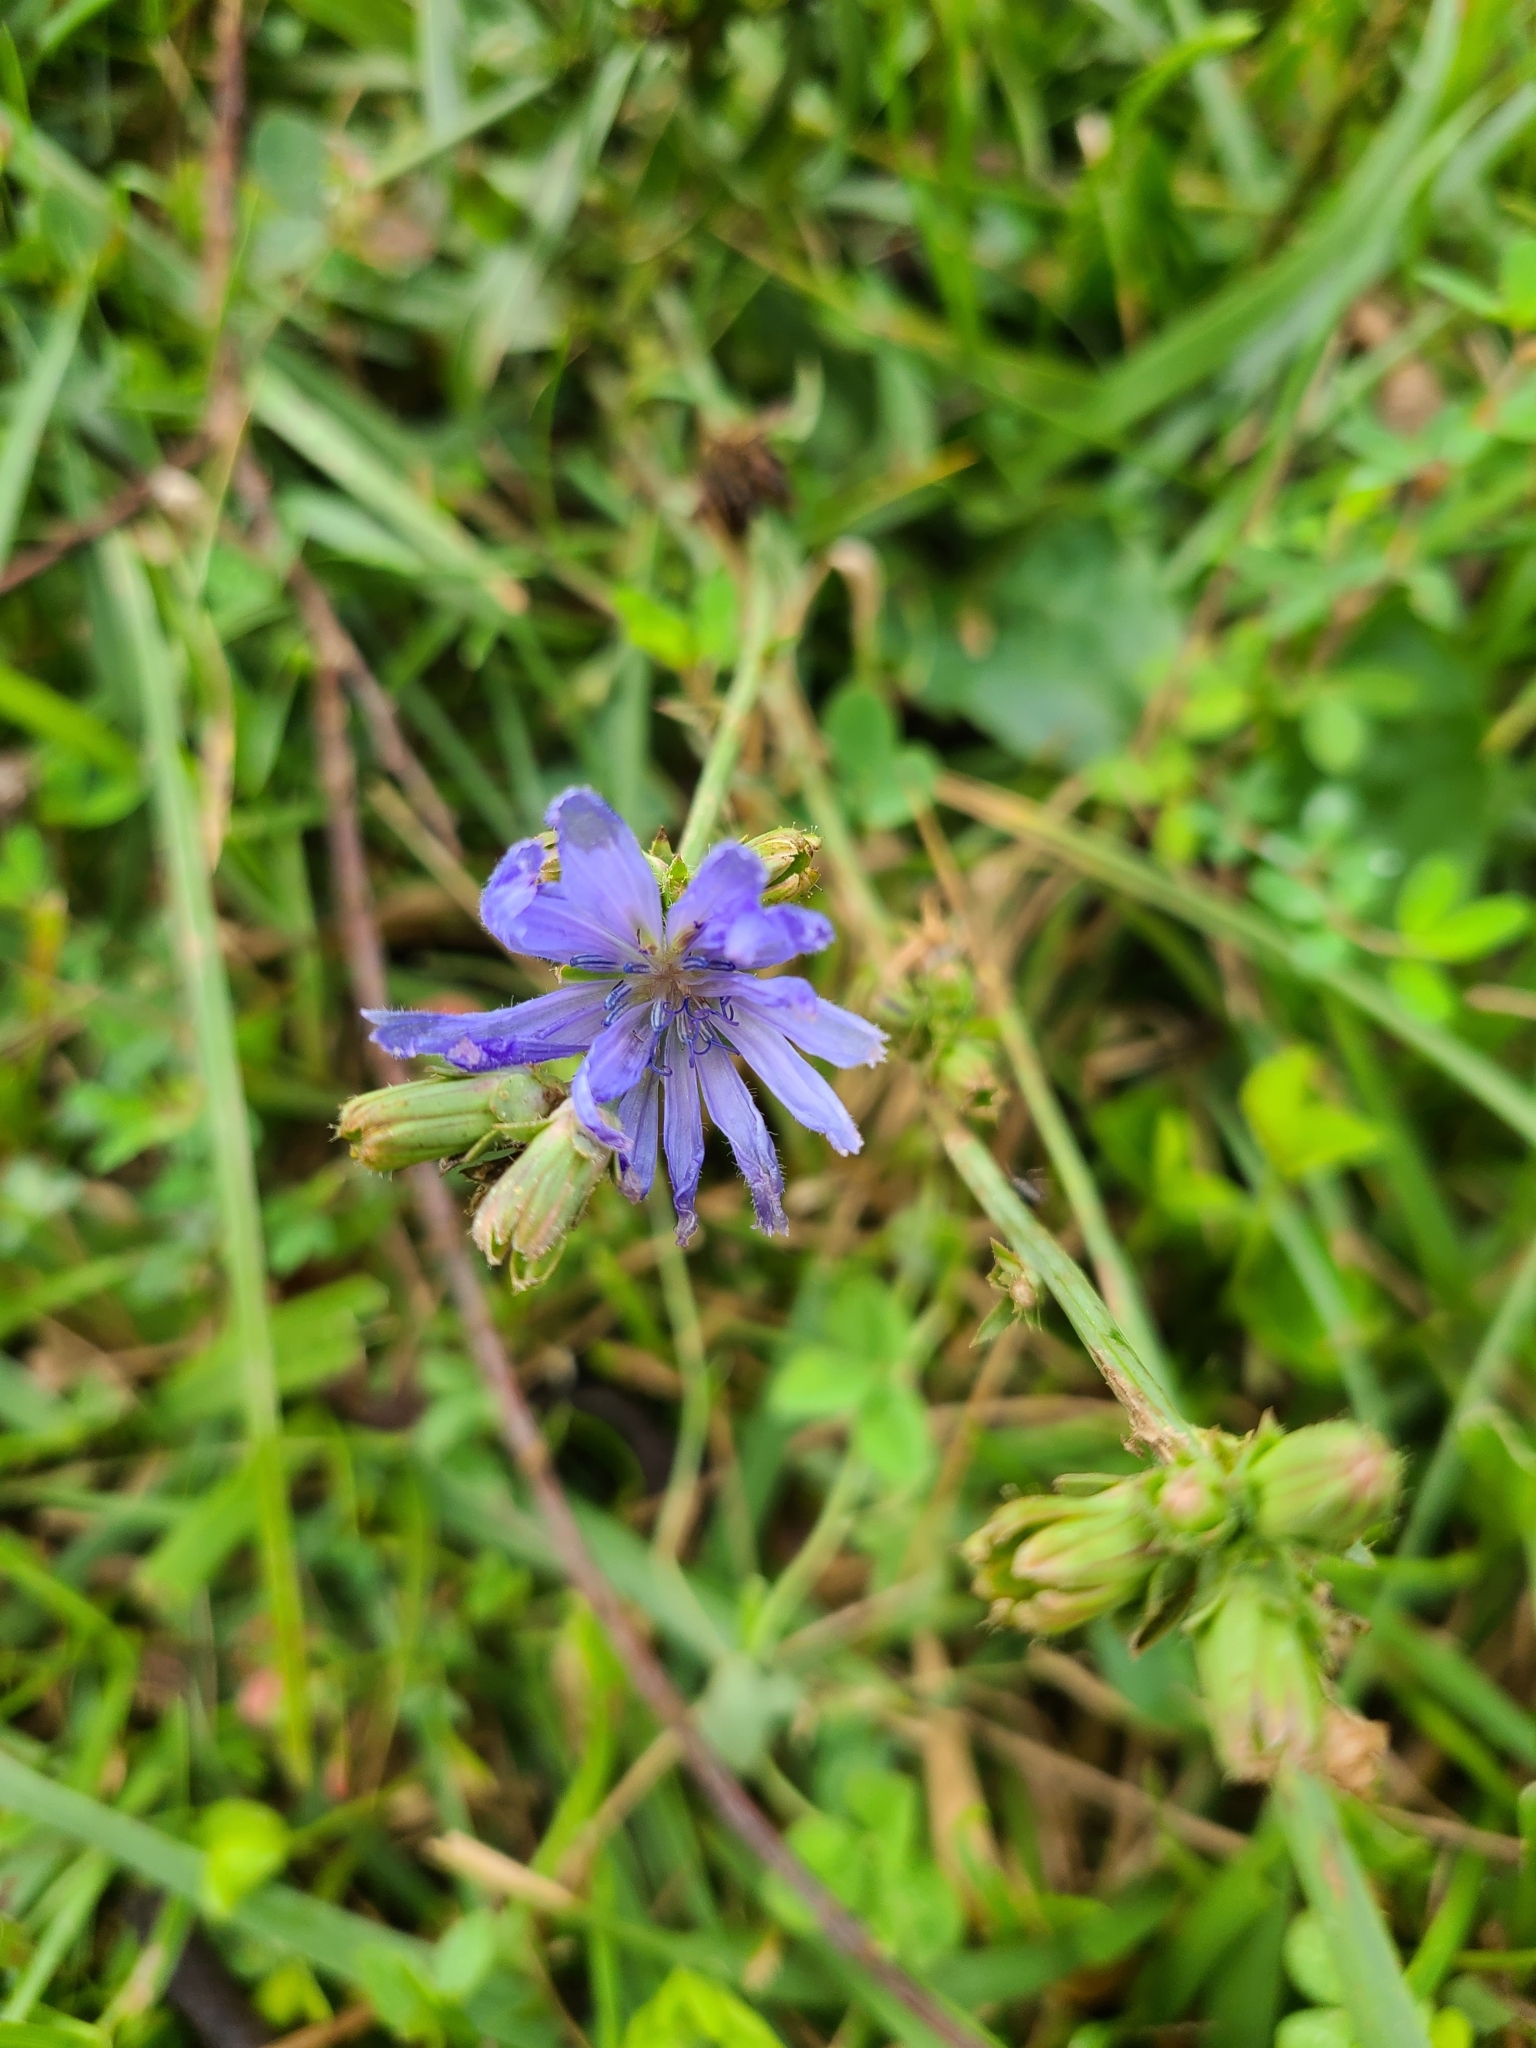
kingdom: Plantae
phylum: Tracheophyta
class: Magnoliopsida
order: Asterales
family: Asteraceae
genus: Cichorium
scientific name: Cichorium intybus
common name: Chicory
